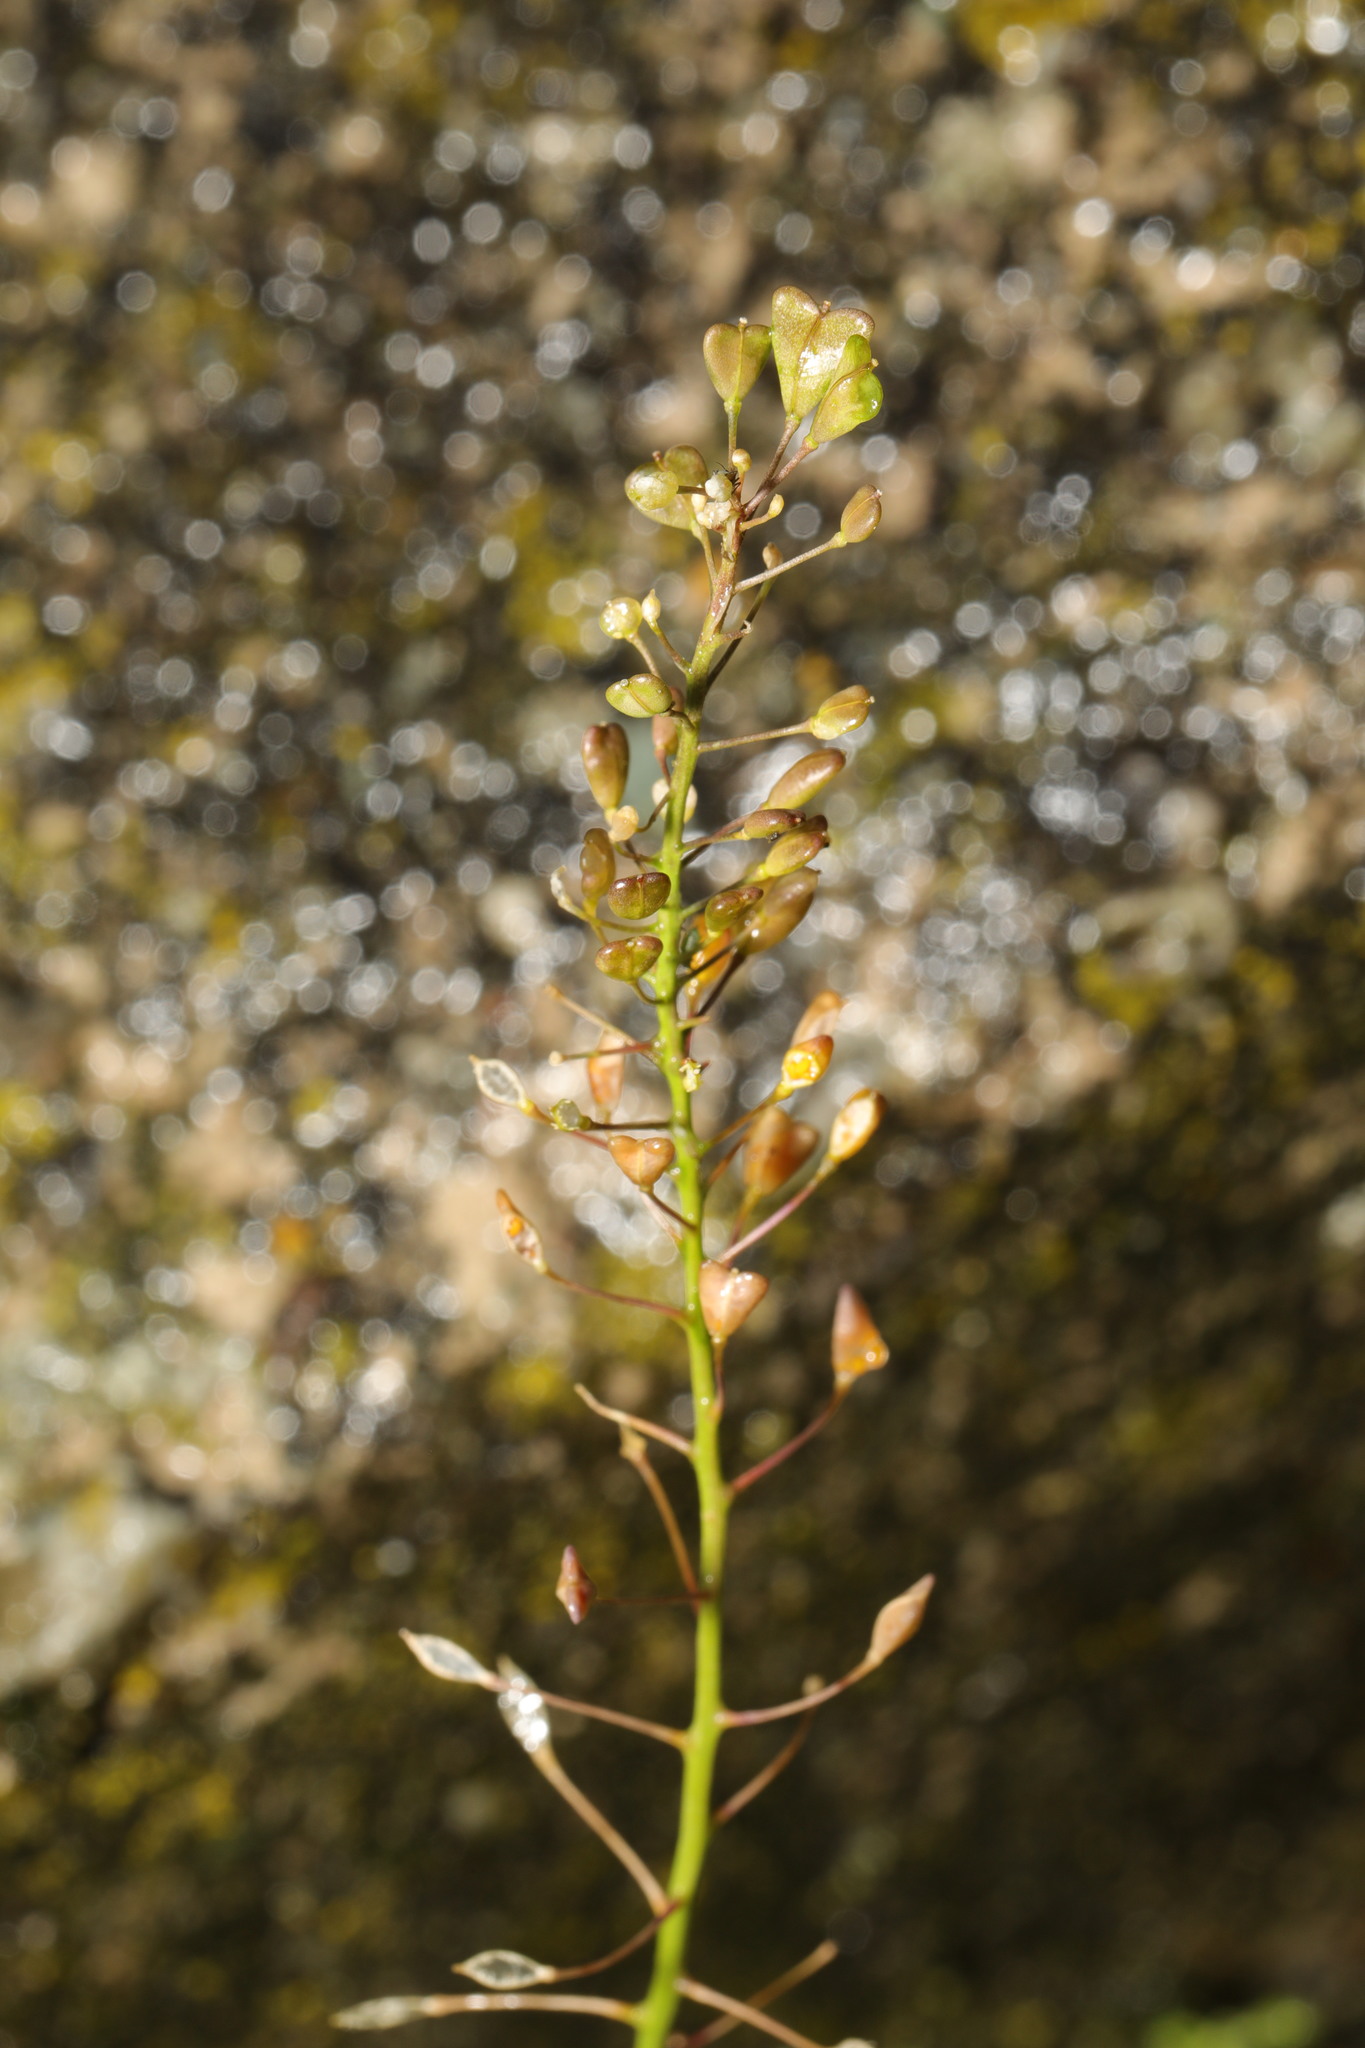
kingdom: Plantae
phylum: Tracheophyta
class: Magnoliopsida
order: Brassicales
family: Brassicaceae
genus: Capsella
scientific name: Capsella bursa-pastoris
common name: Shepherd's purse
